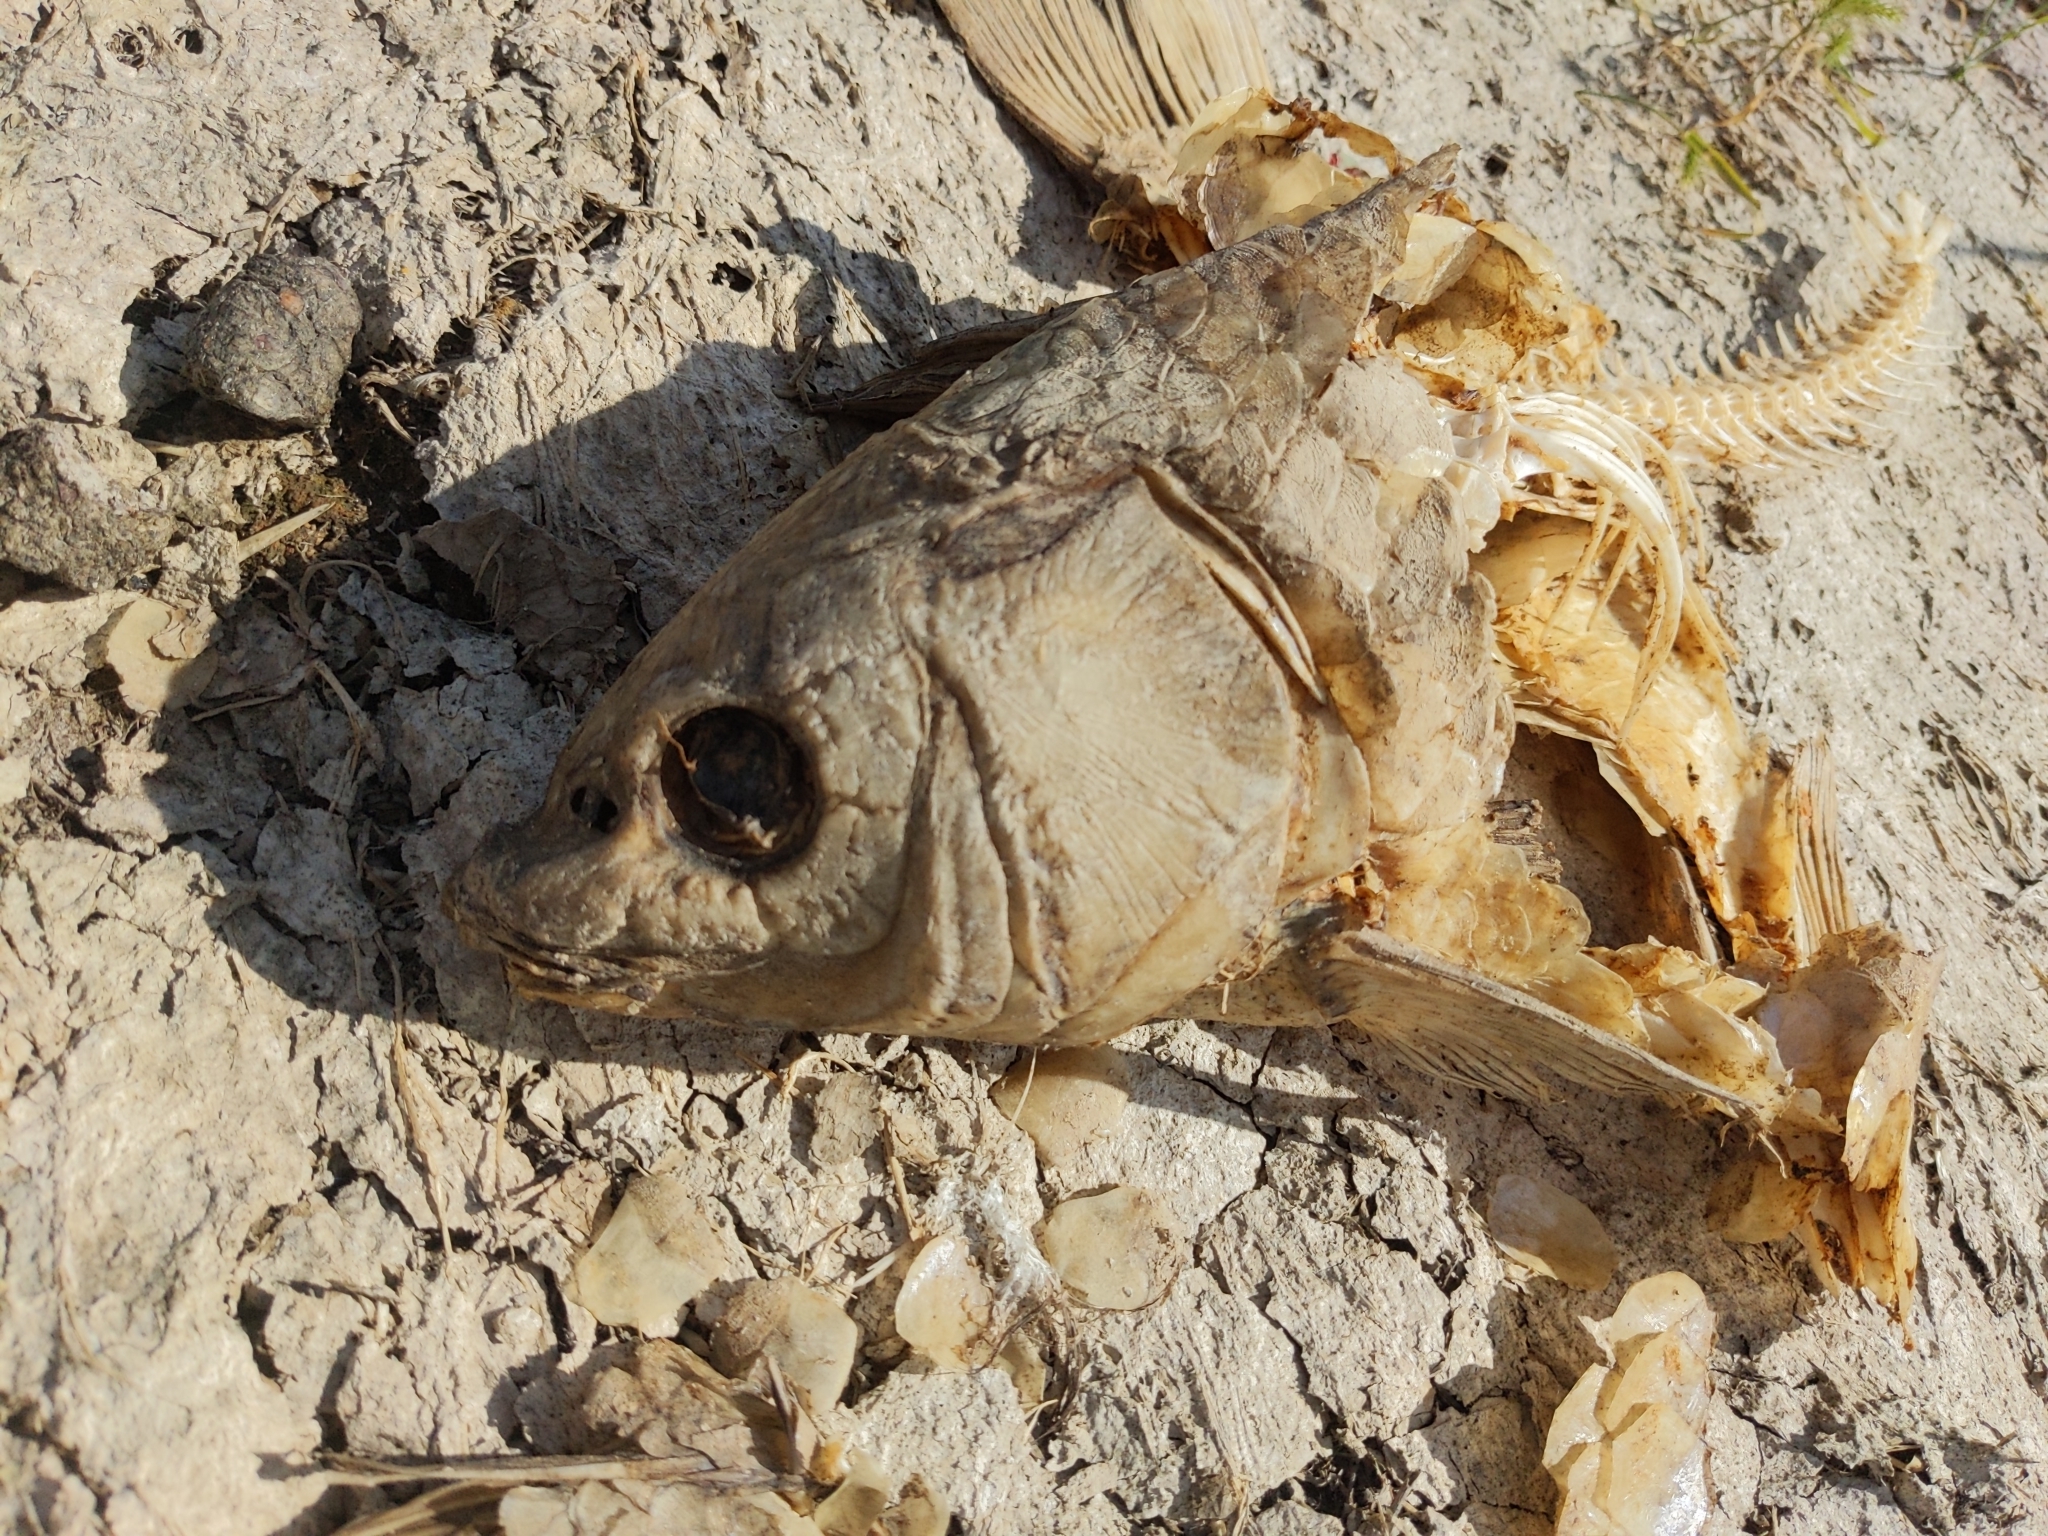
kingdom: Animalia
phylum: Chordata
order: Cypriniformes
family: Cyprinidae
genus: Cyprinus
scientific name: Cyprinus carpio
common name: Common carp
